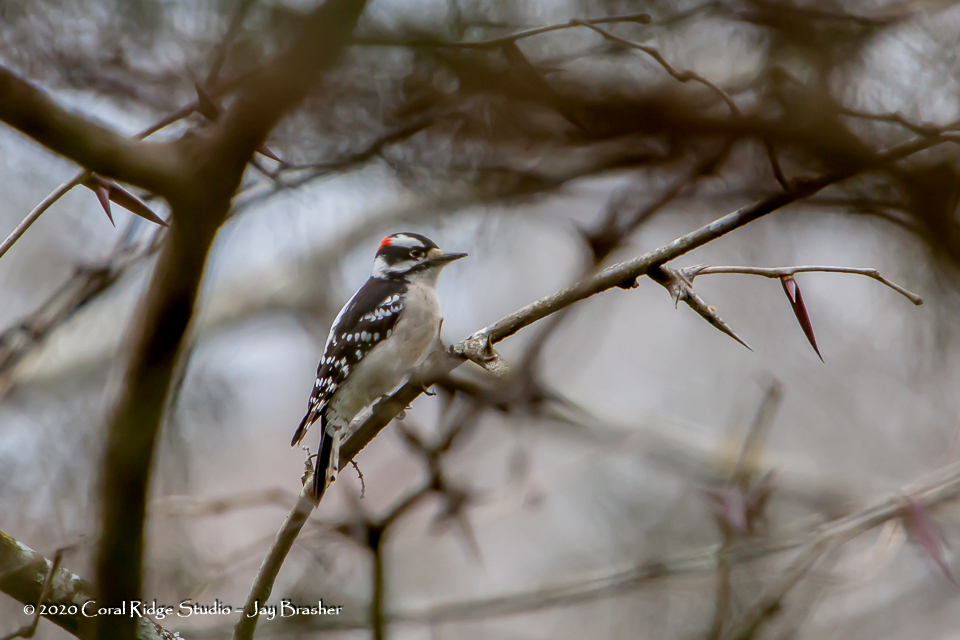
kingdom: Animalia
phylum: Chordata
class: Aves
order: Piciformes
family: Picidae
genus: Dryobates
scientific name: Dryobates pubescens
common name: Downy woodpecker
